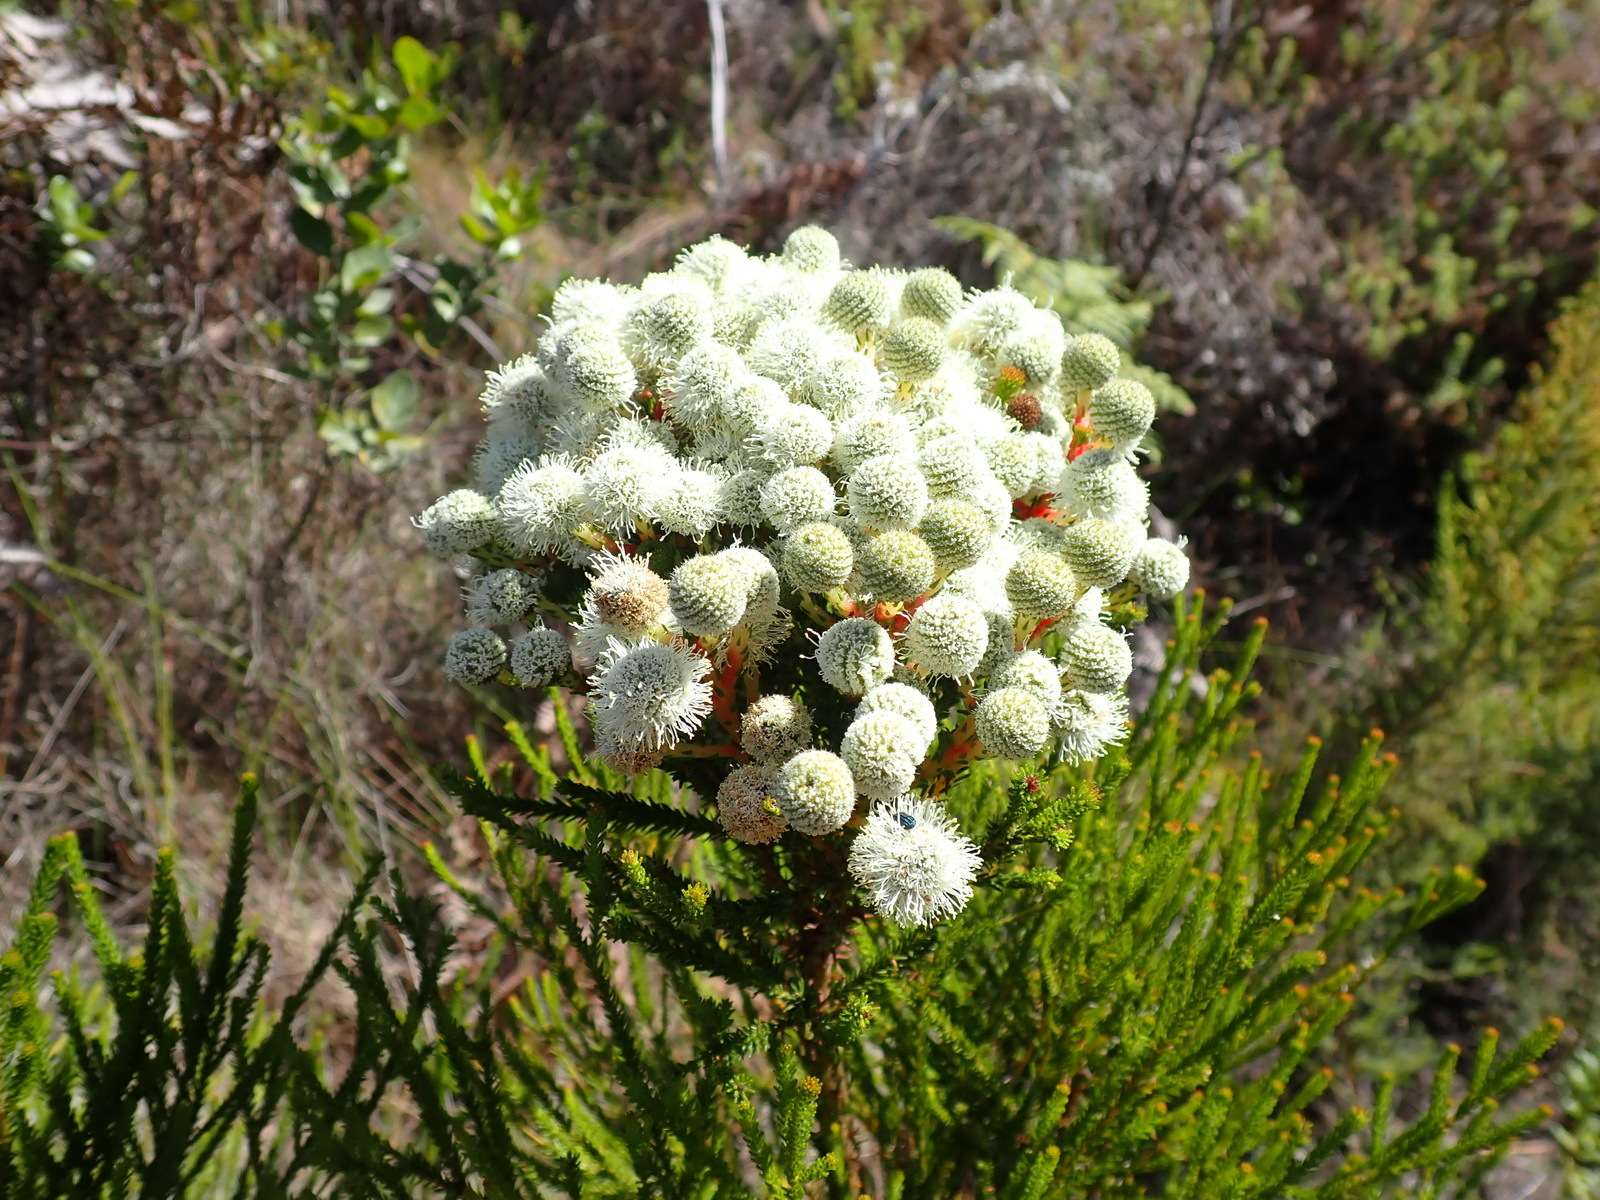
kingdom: Plantae
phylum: Tracheophyta
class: Magnoliopsida
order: Bruniales
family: Bruniaceae
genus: Berzelia
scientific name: Berzelia intermedia
